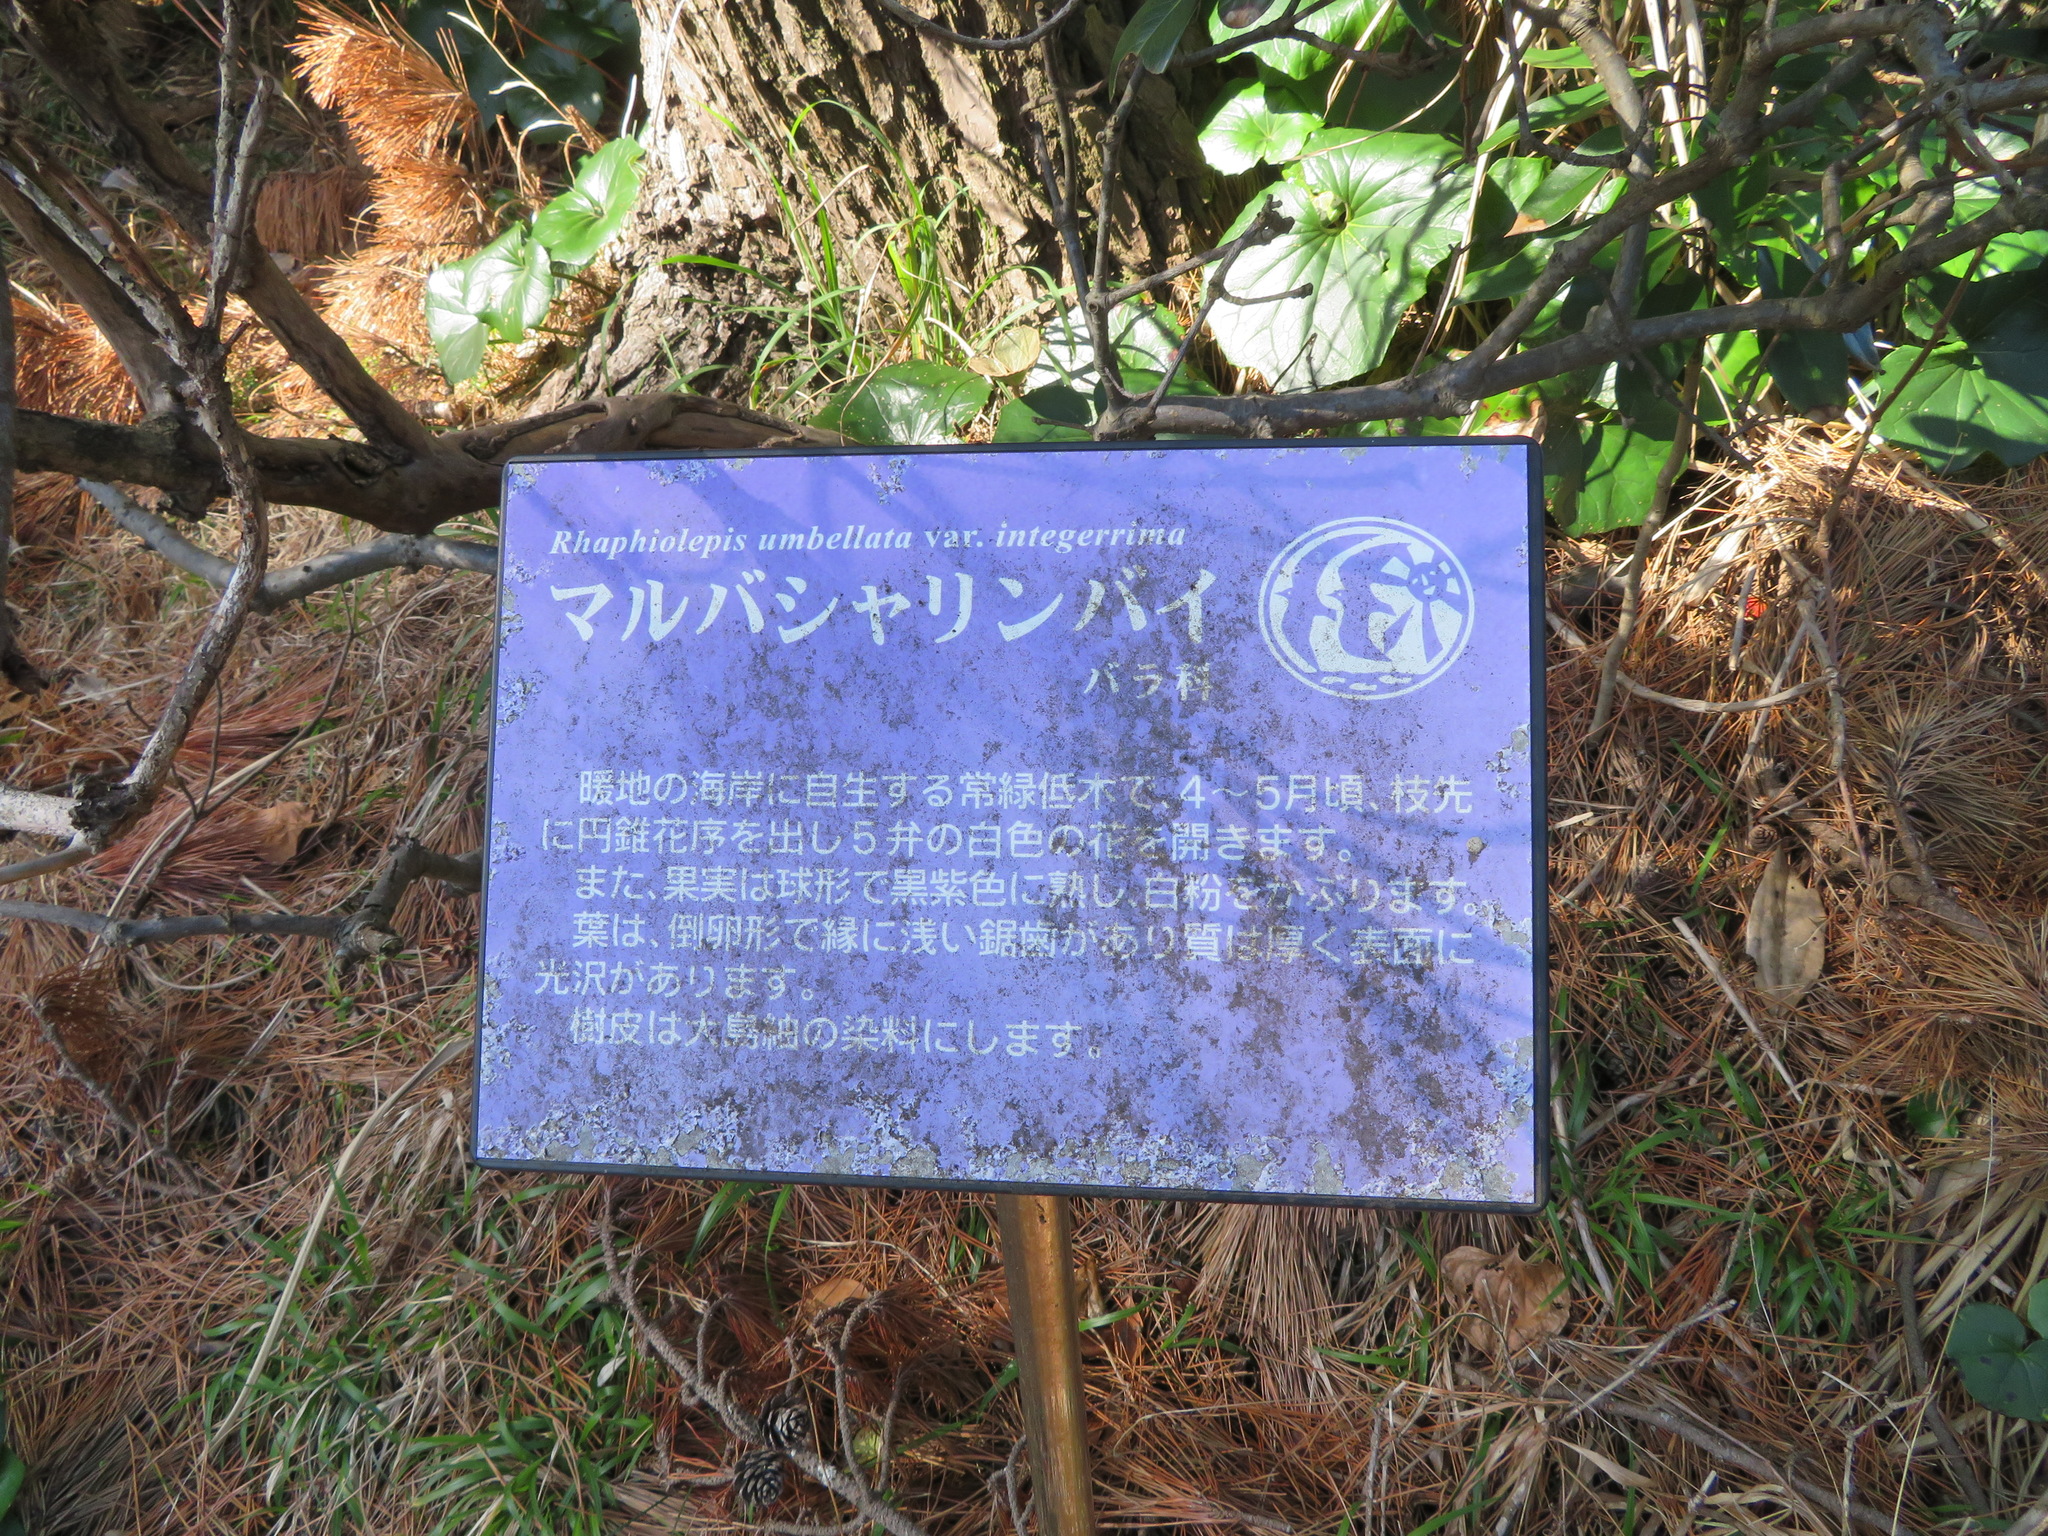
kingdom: Plantae
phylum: Tracheophyta
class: Magnoliopsida
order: Rosales
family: Rosaceae
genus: Rhaphiolepis
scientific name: Rhaphiolepis indica
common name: India-hawthorn
